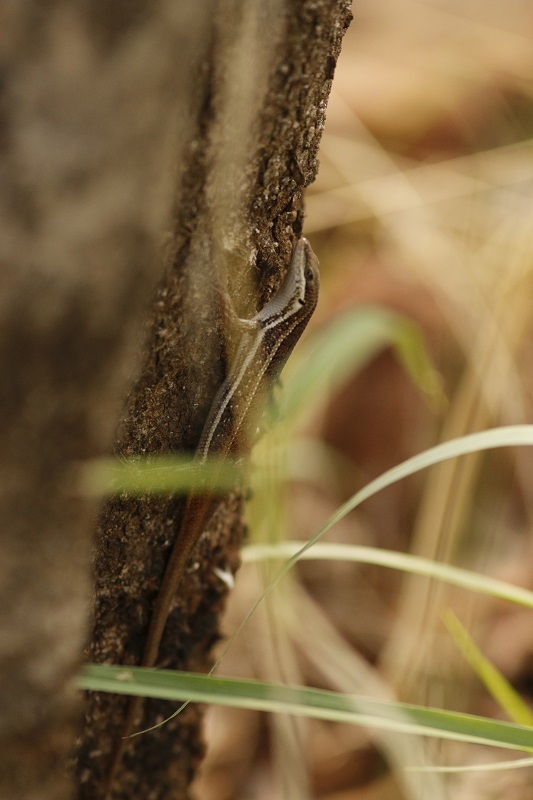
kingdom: Animalia
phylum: Chordata
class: Squamata
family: Scincidae
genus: Trachylepis
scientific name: Trachylepis varia
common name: Eastern variable skink
